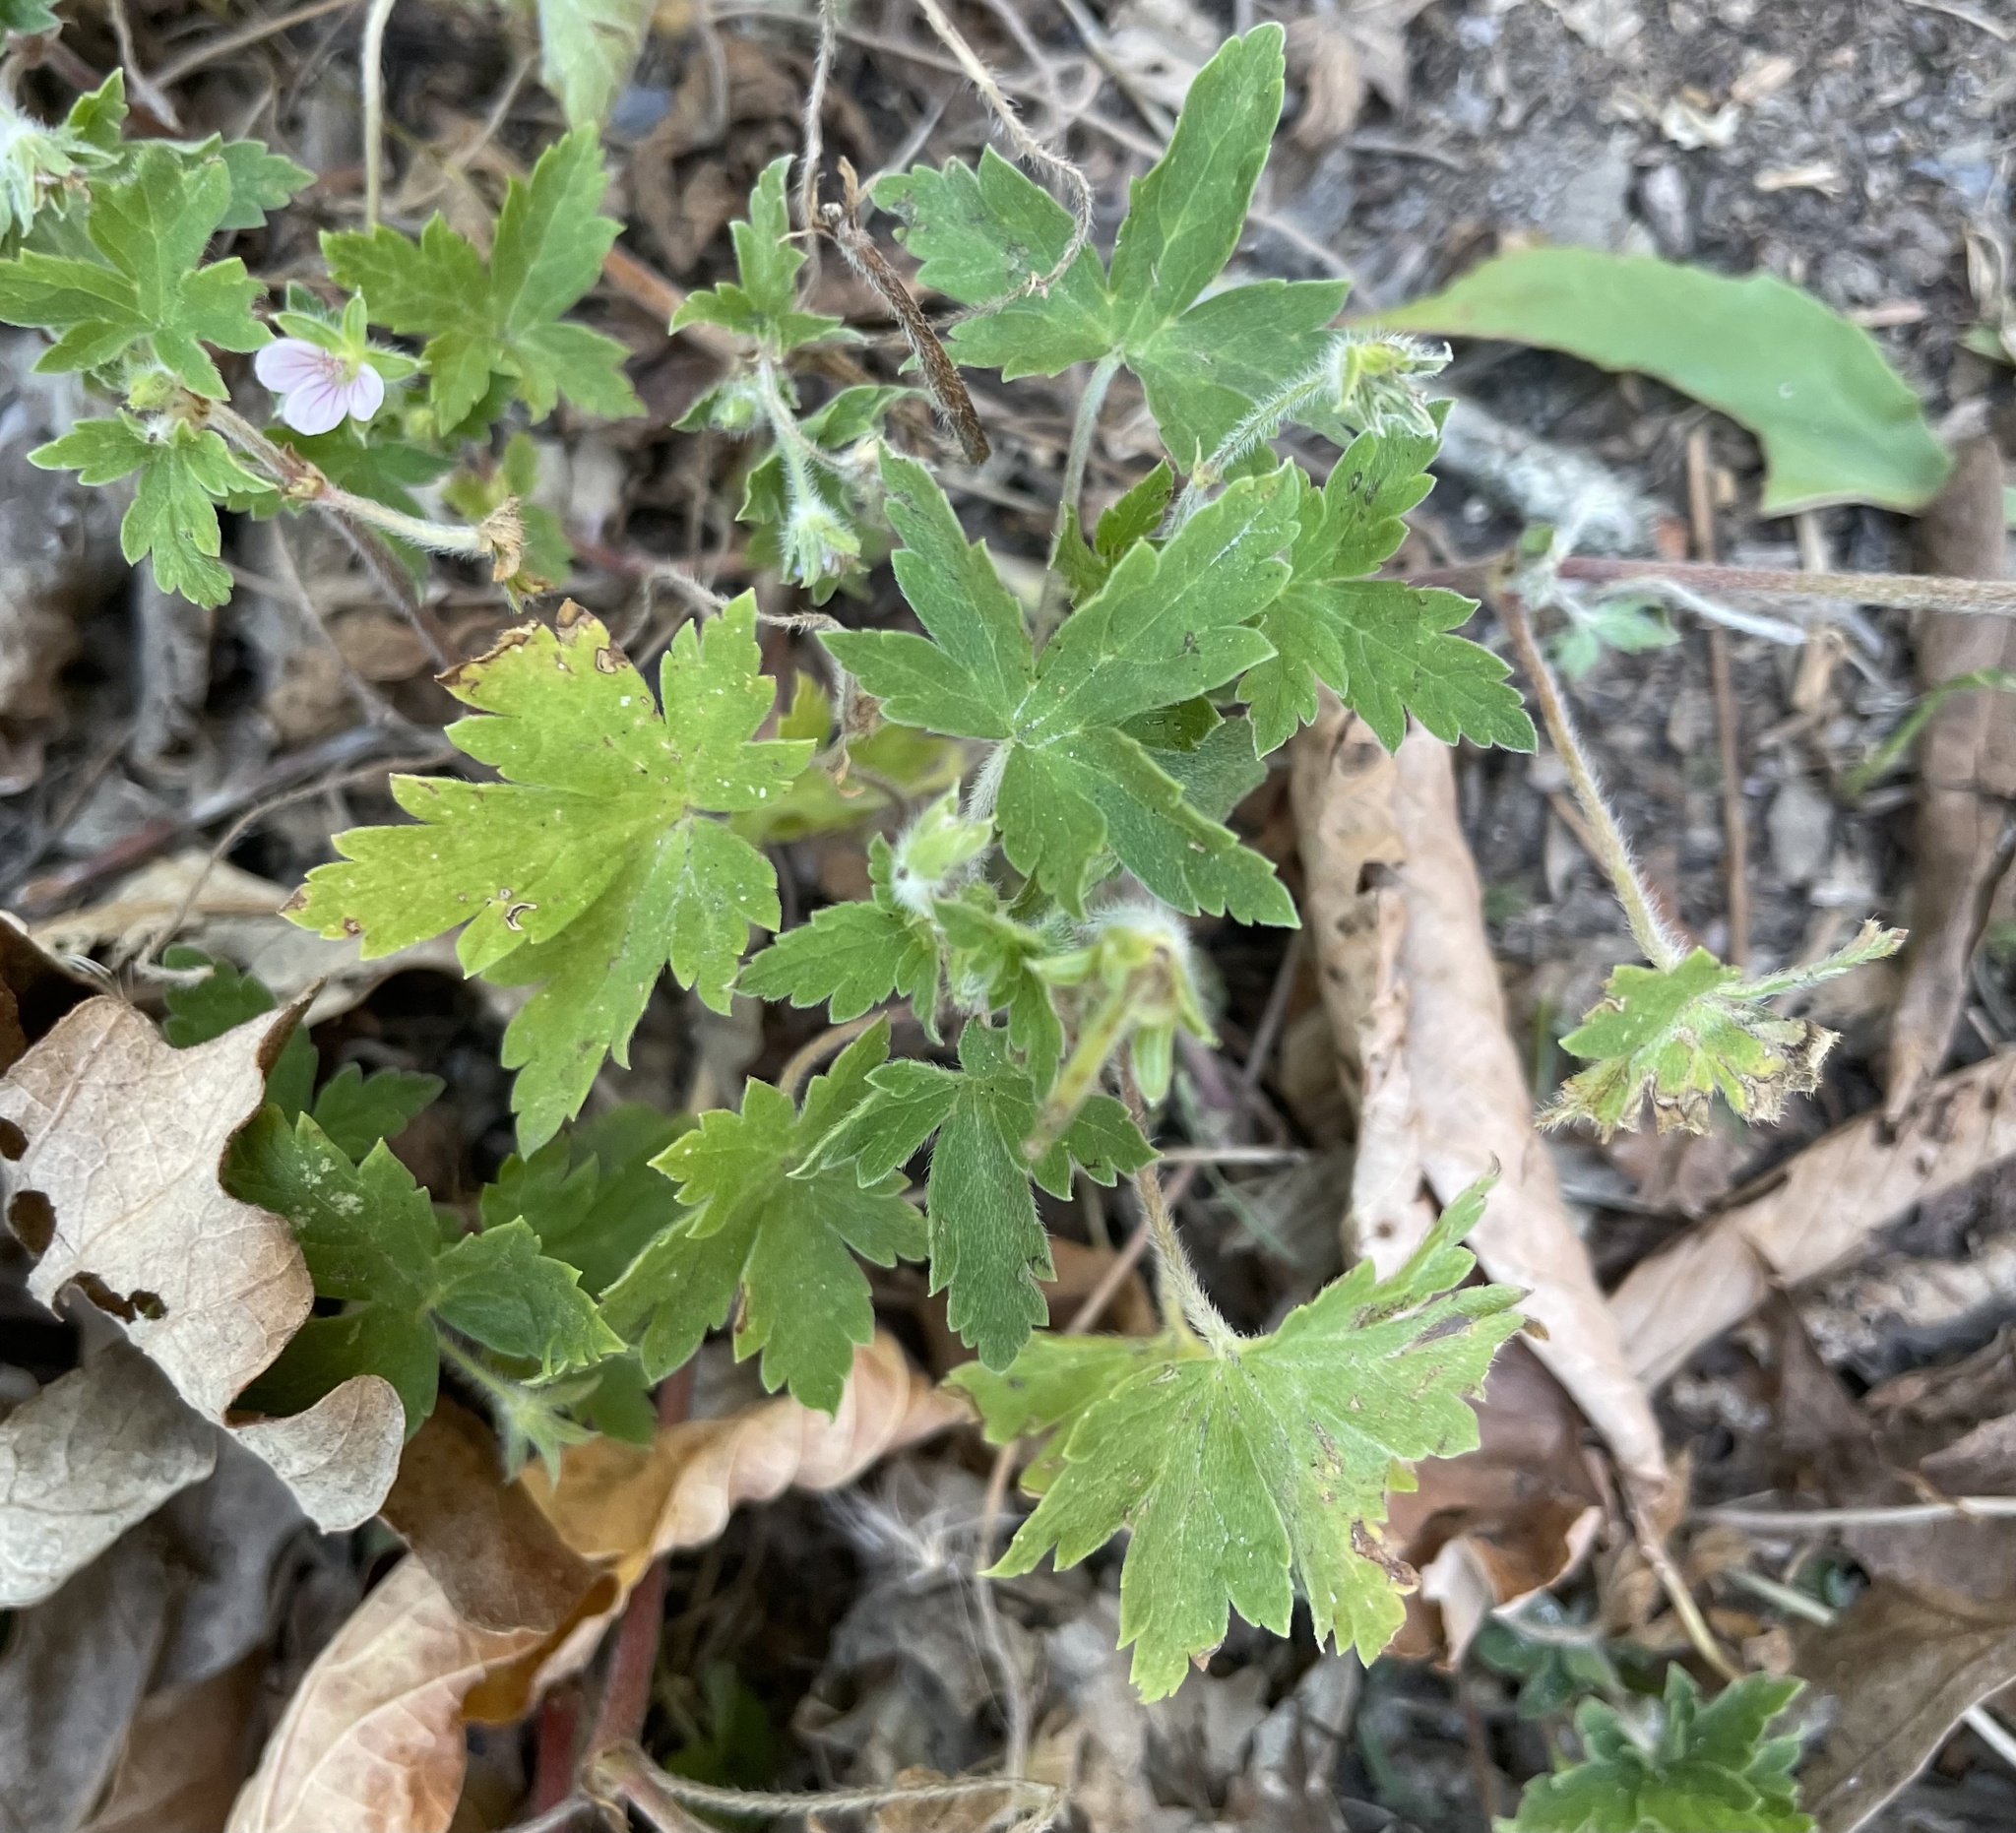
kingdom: Plantae
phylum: Tracheophyta
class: Magnoliopsida
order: Geraniales
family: Geraniaceae
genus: Geranium
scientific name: Geranium sibiricum
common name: Siberian crane's-bill
